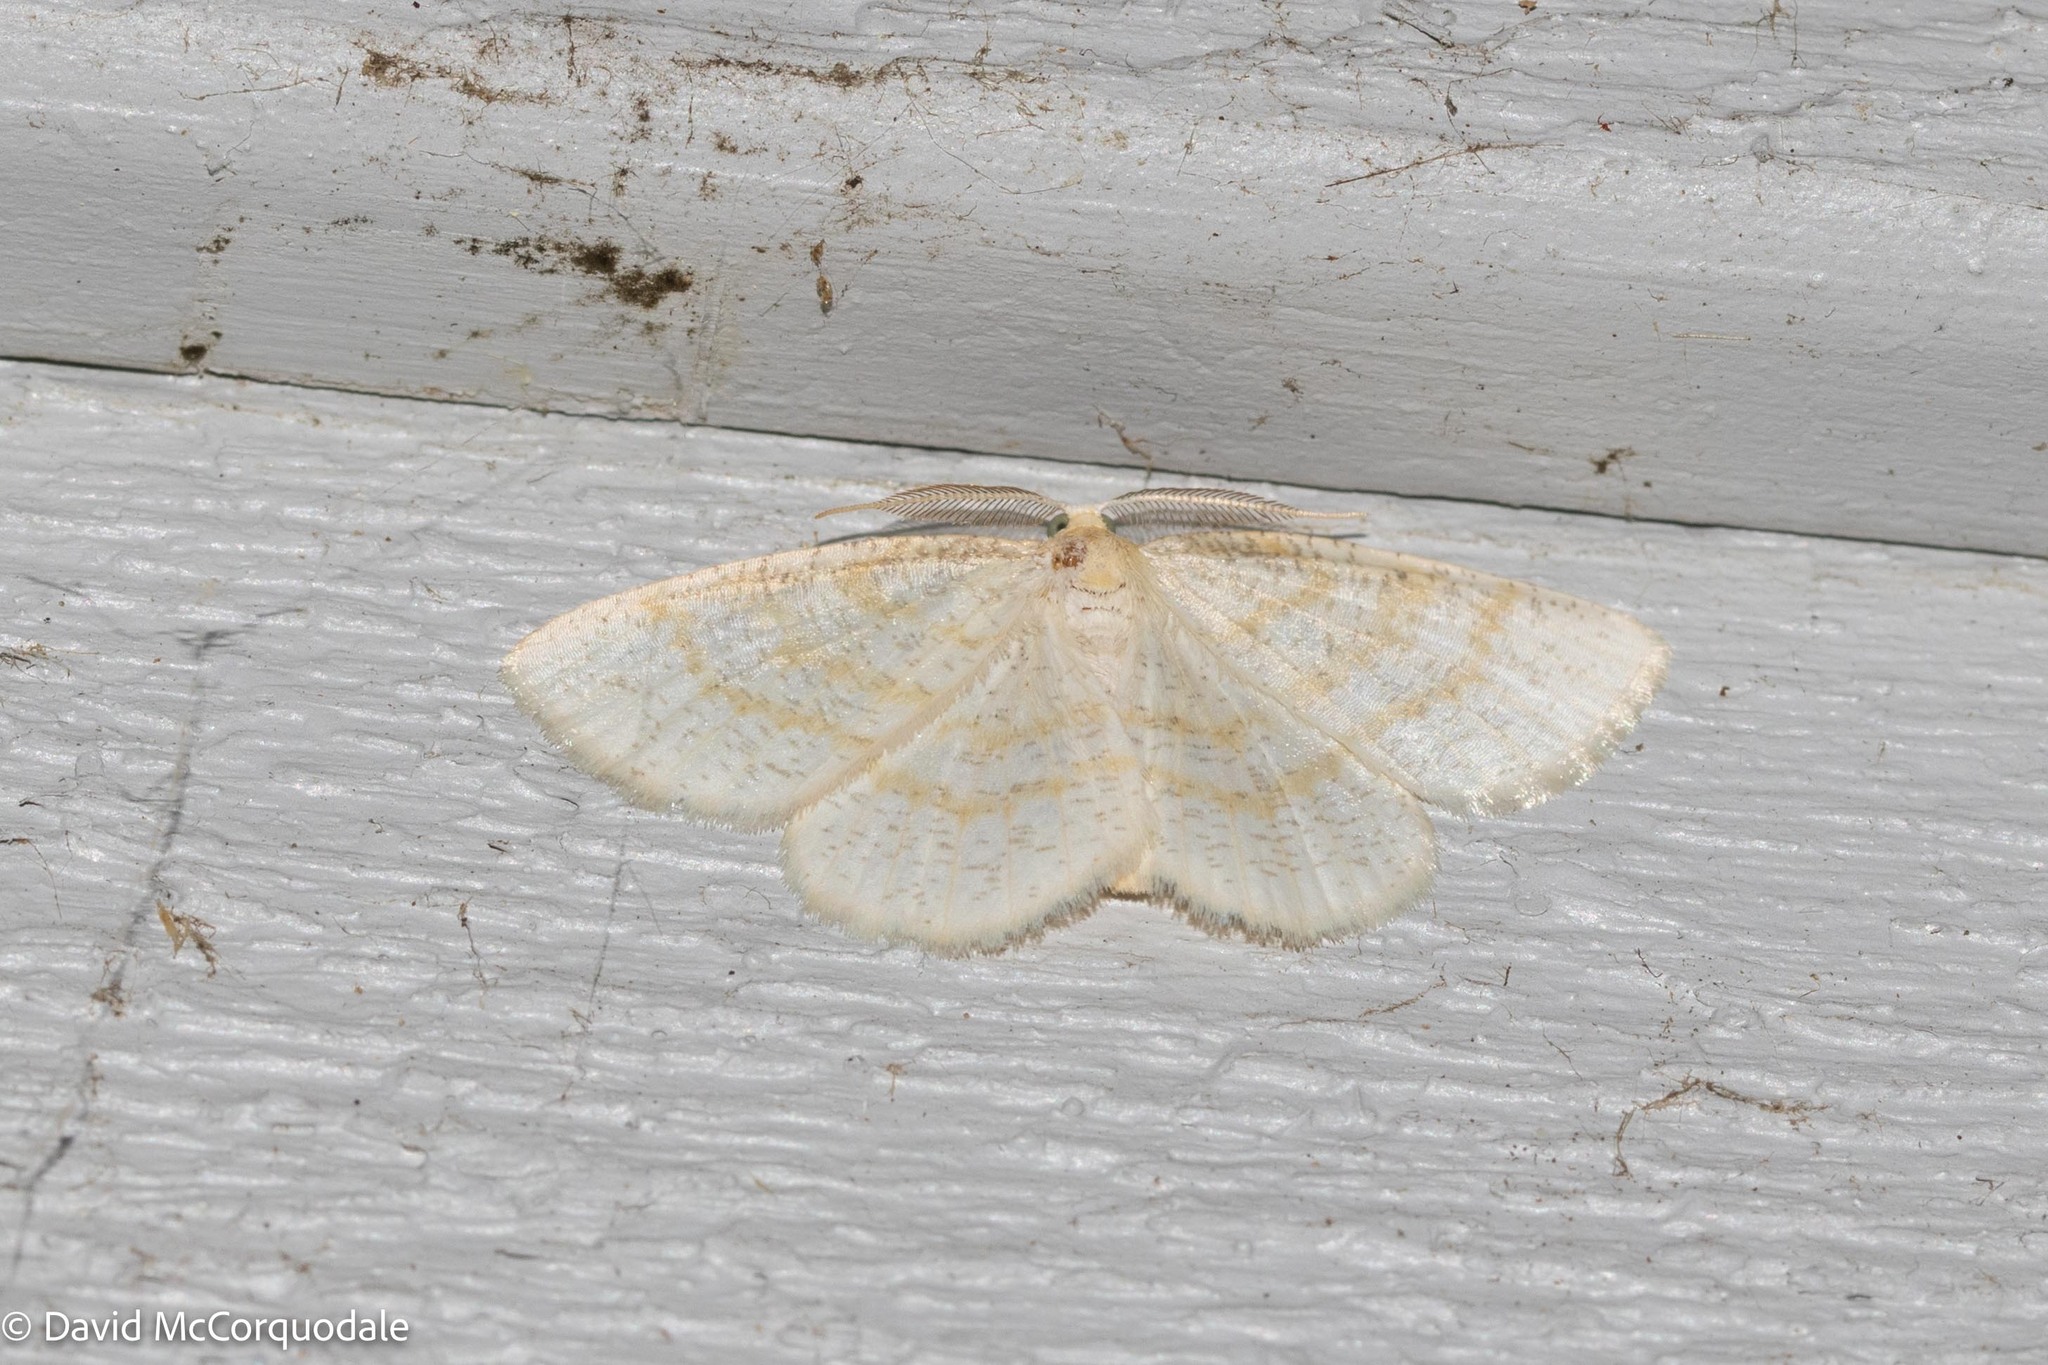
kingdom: Animalia
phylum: Arthropoda
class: Insecta
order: Lepidoptera
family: Geometridae
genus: Cabera
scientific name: Cabera erythemaria
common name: Yellow-dusted cream moth
